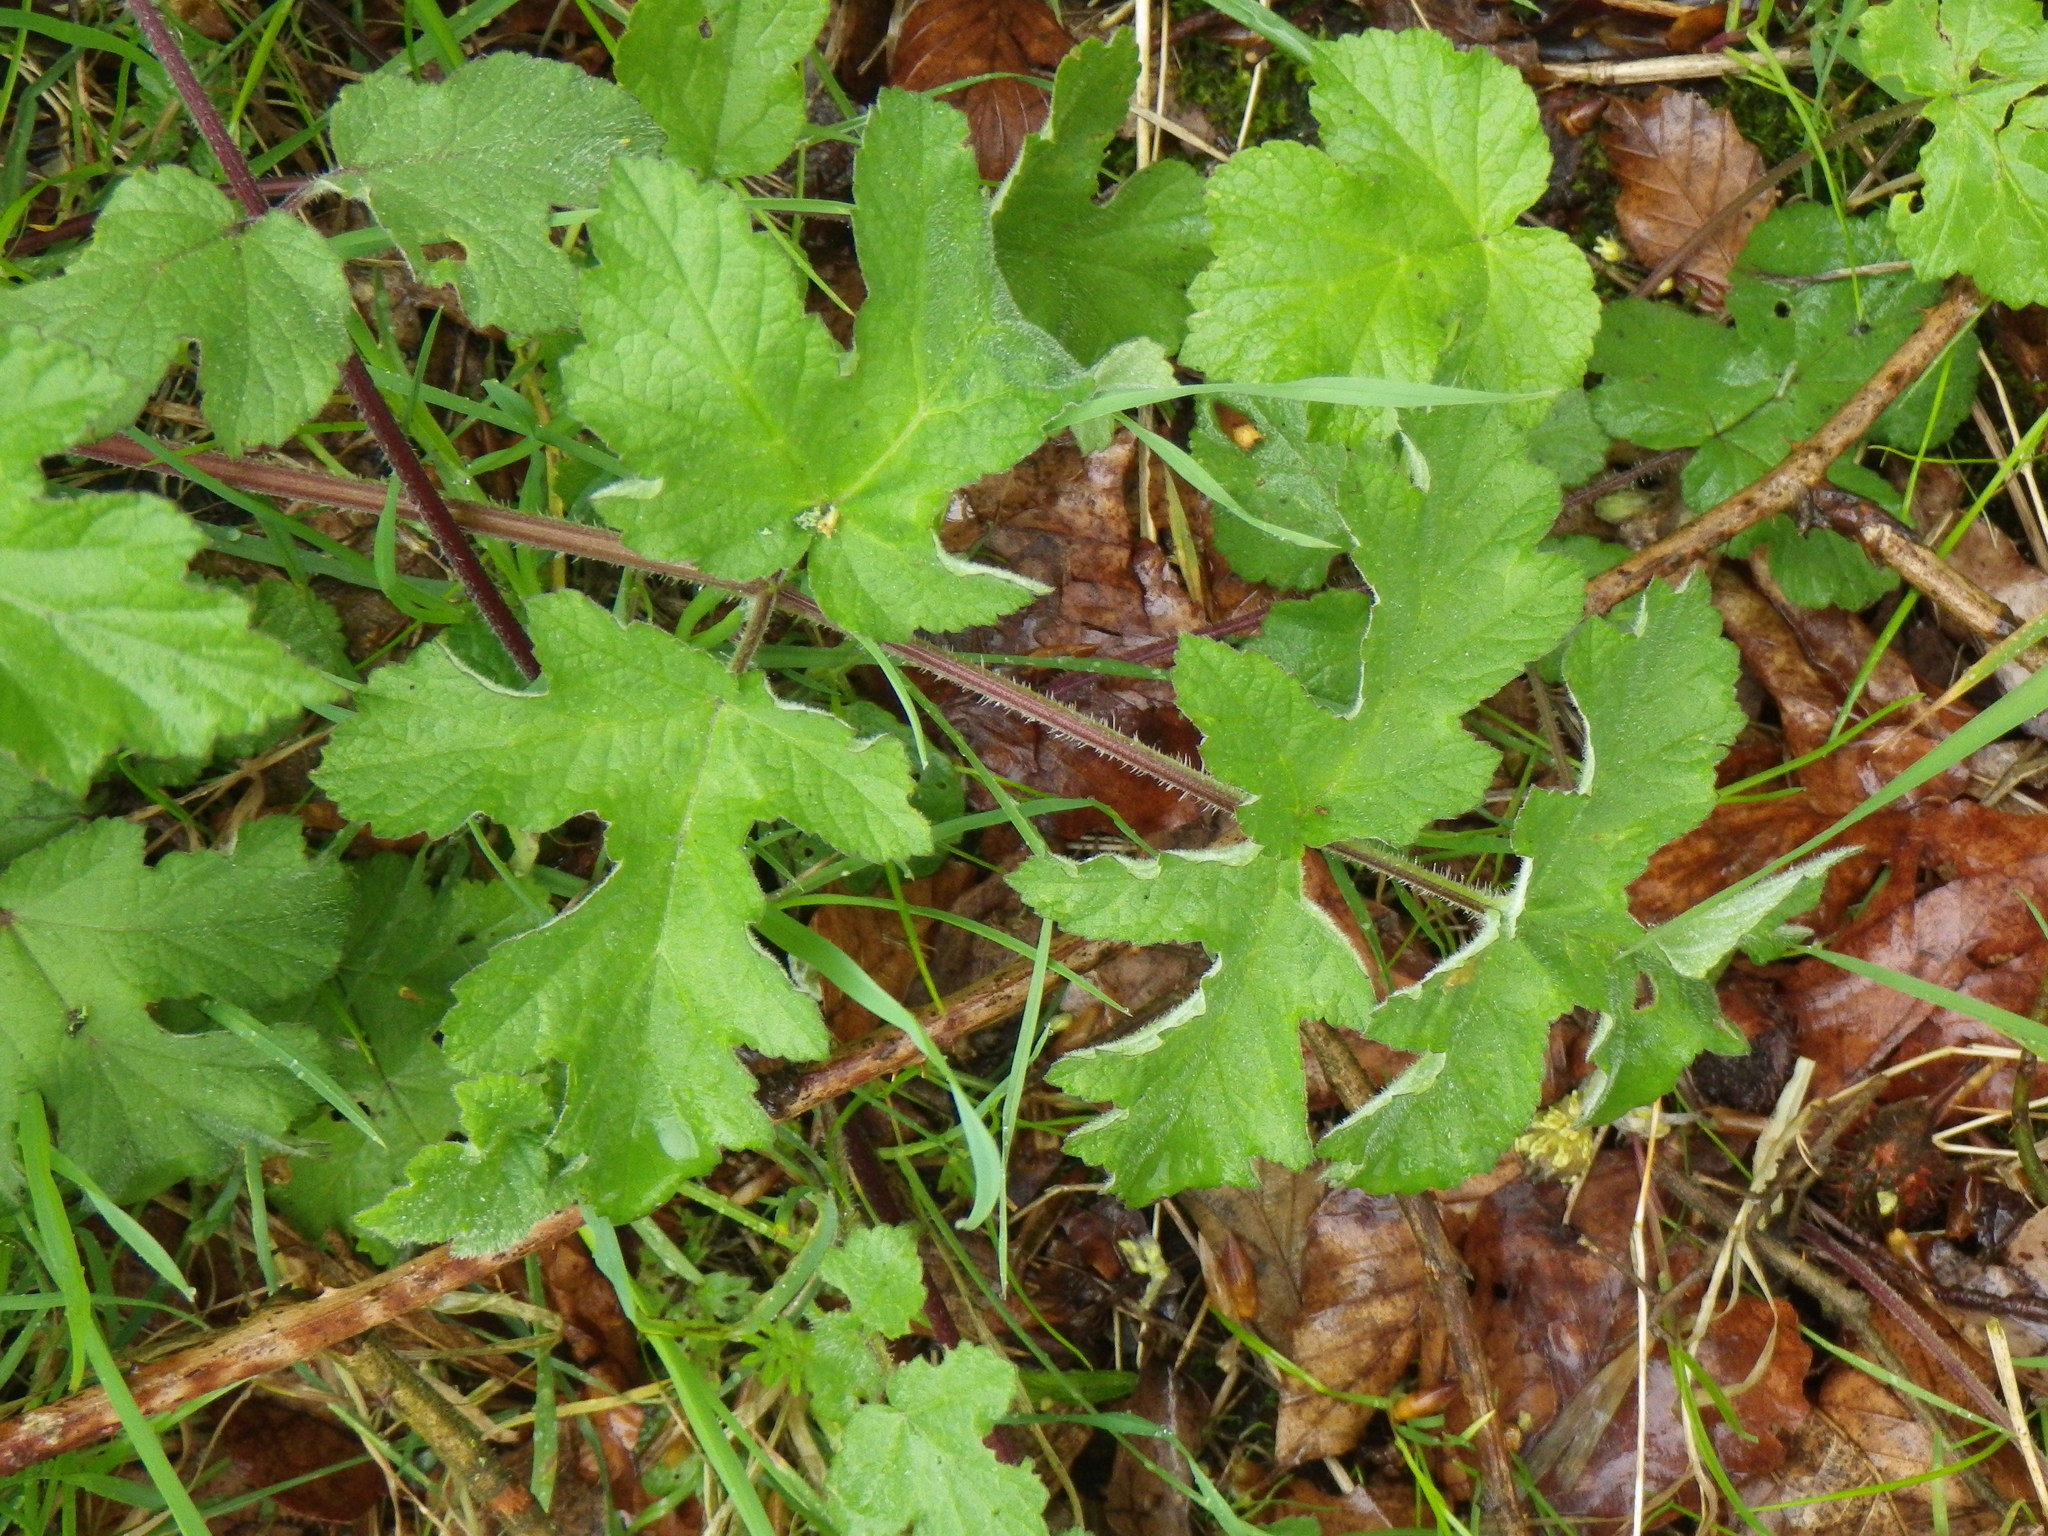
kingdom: Plantae
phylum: Tracheophyta
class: Magnoliopsida
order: Apiales
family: Apiaceae
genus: Heracleum
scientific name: Heracleum sphondylium
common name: Hogweed
